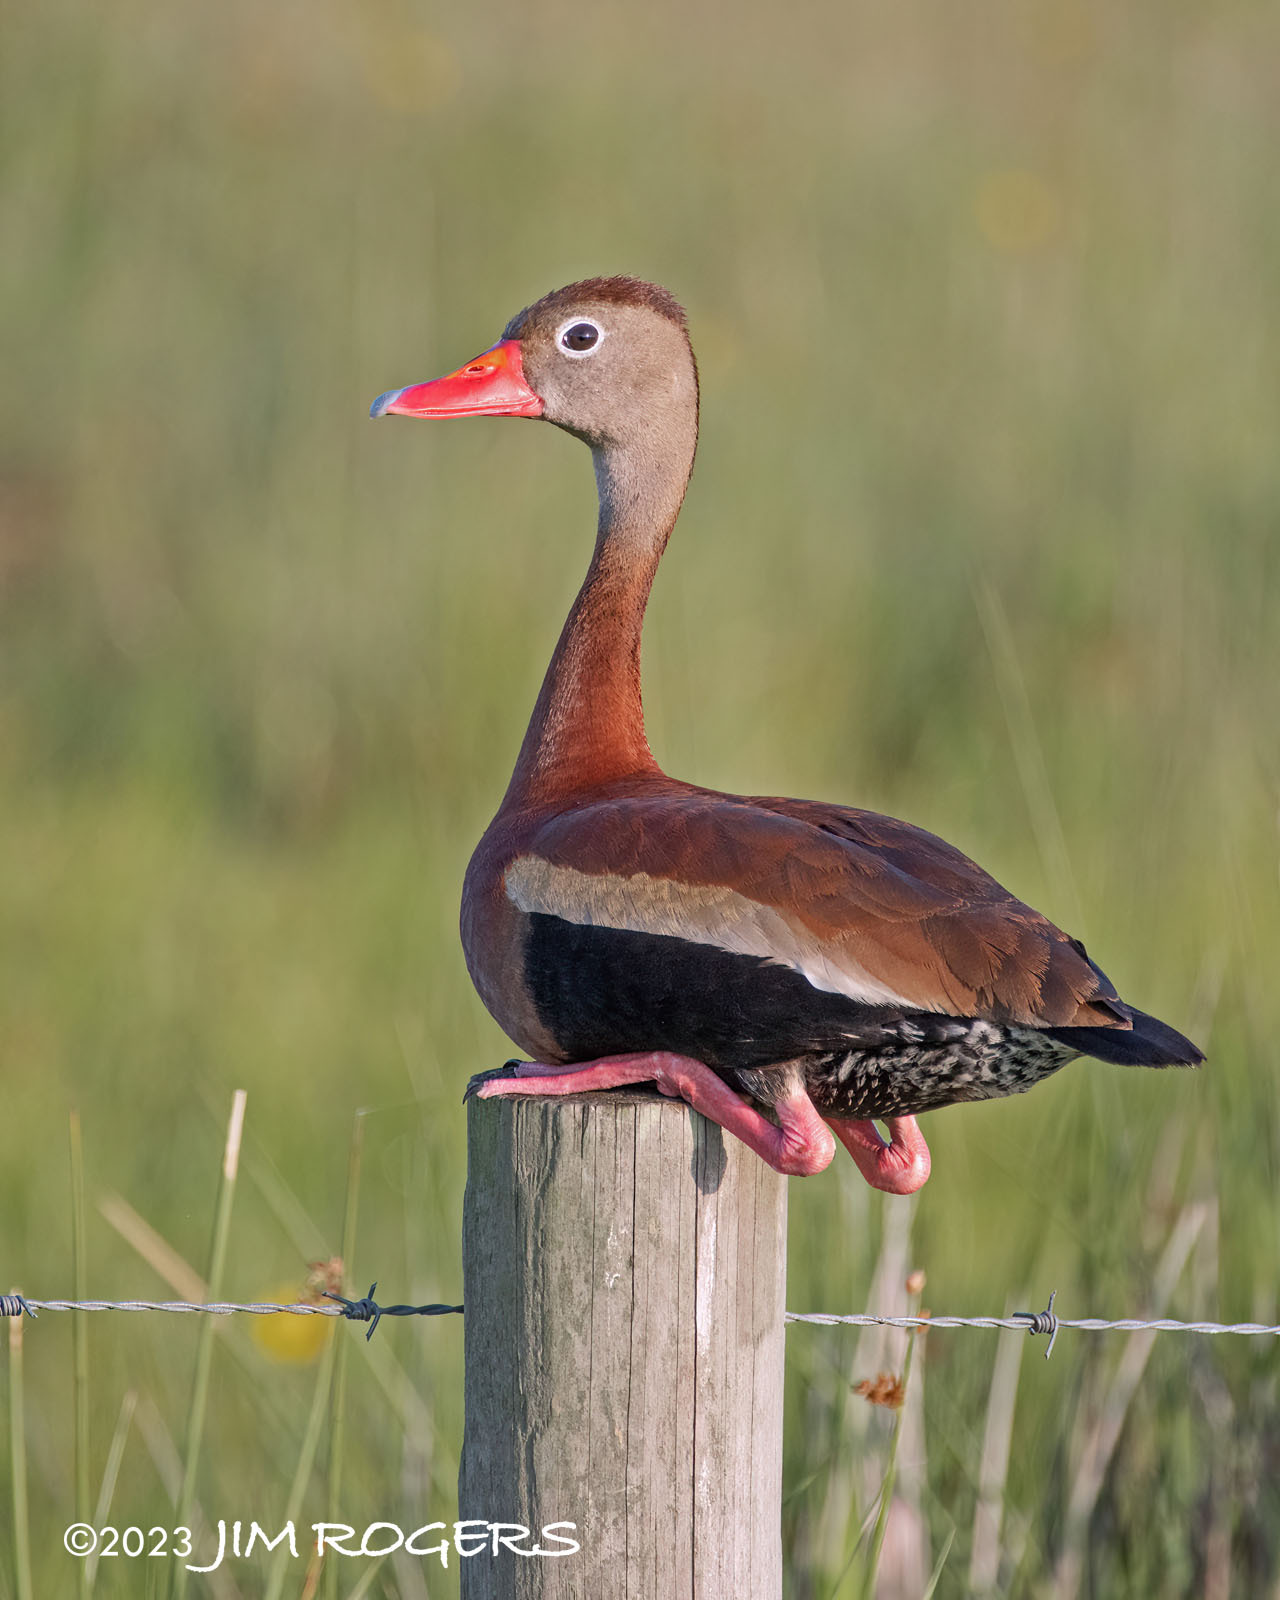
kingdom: Animalia
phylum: Chordata
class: Aves
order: Anseriformes
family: Anatidae
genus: Dendrocygna
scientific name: Dendrocygna autumnalis
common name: Black-bellied whistling duck
